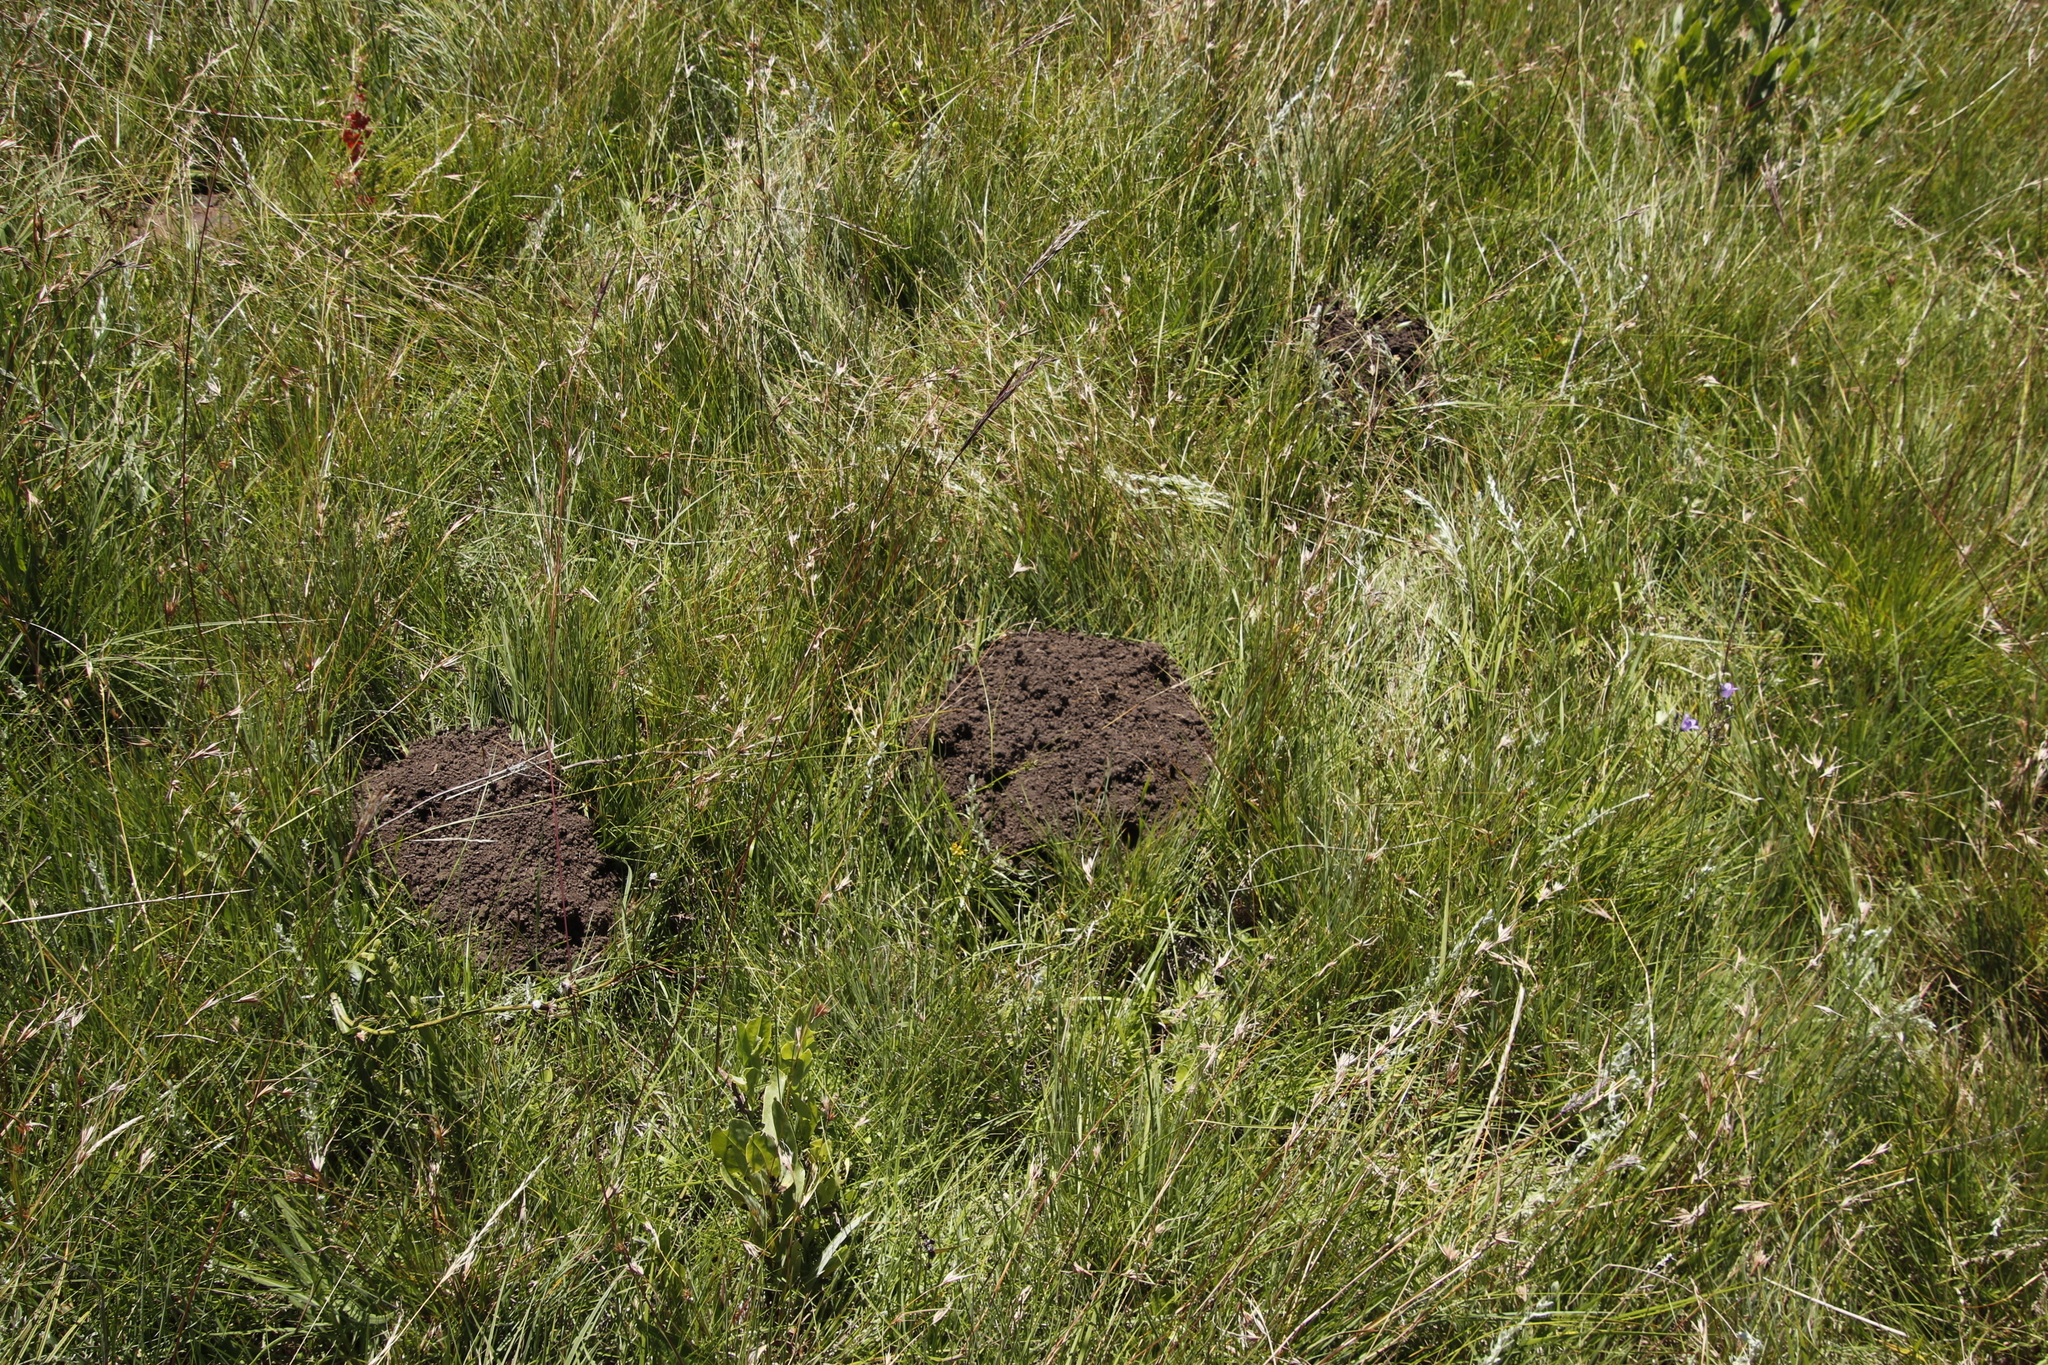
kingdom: Animalia
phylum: Chordata
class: Mammalia
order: Rodentia
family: Bathyergidae
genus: Cryptomys
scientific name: Cryptomys hottentotus
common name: Southern african mole-rat
